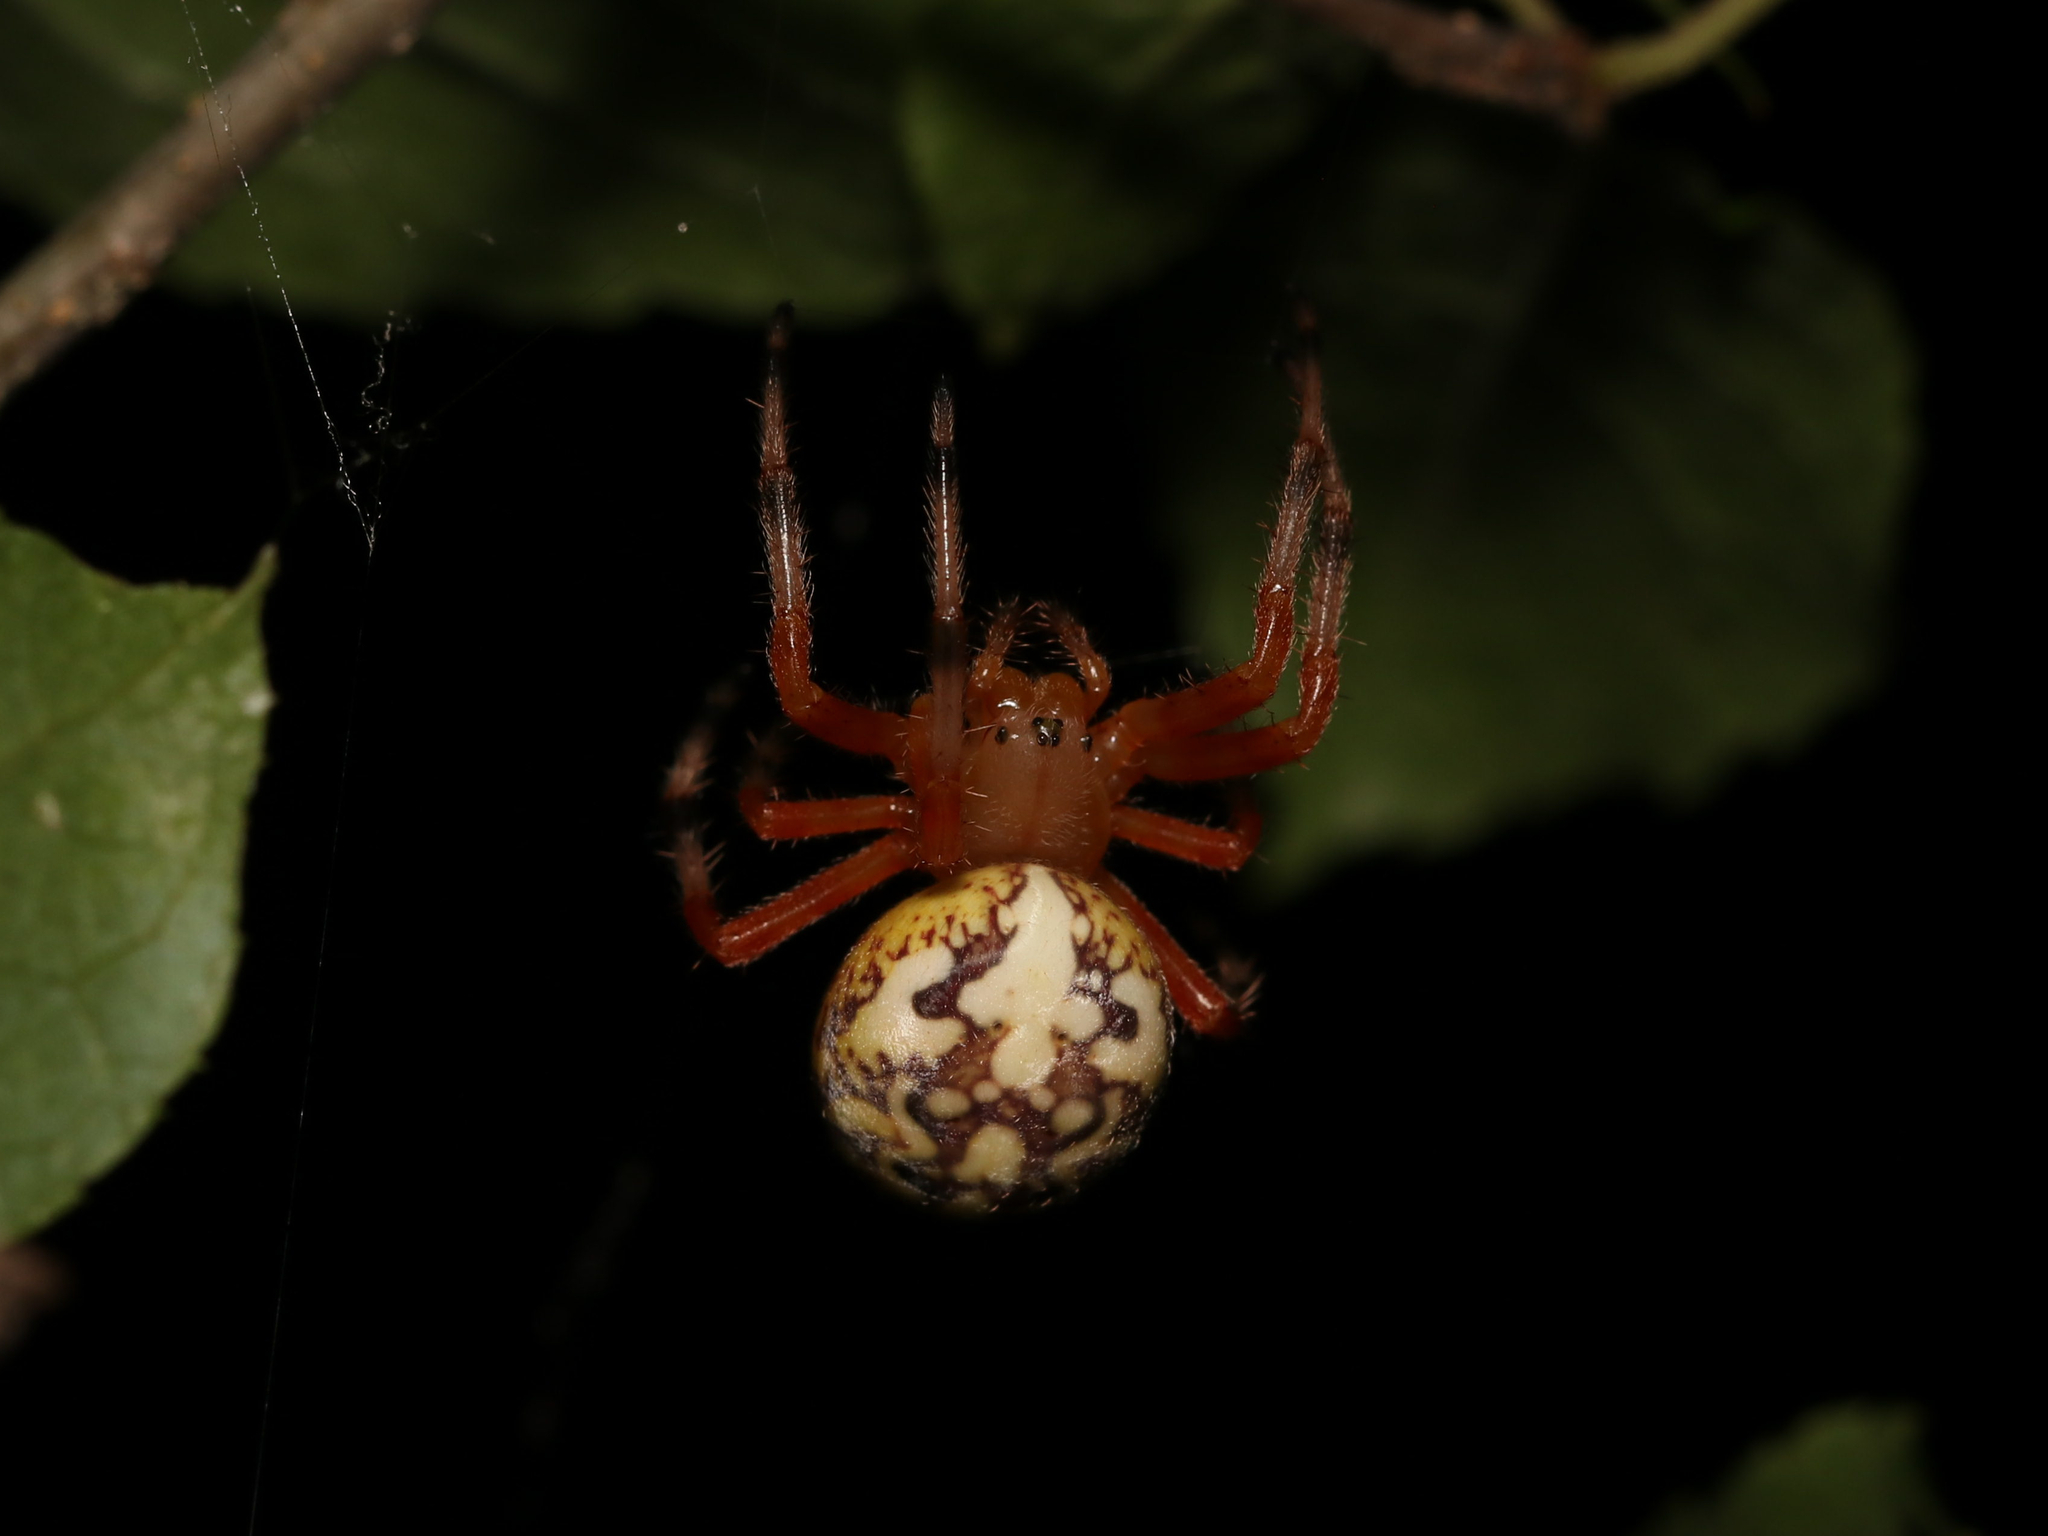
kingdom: Animalia
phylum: Arthropoda
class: Arachnida
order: Araneae
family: Araneidae
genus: Araneus
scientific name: Araneus marmoreus
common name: Marbled orbweaver
